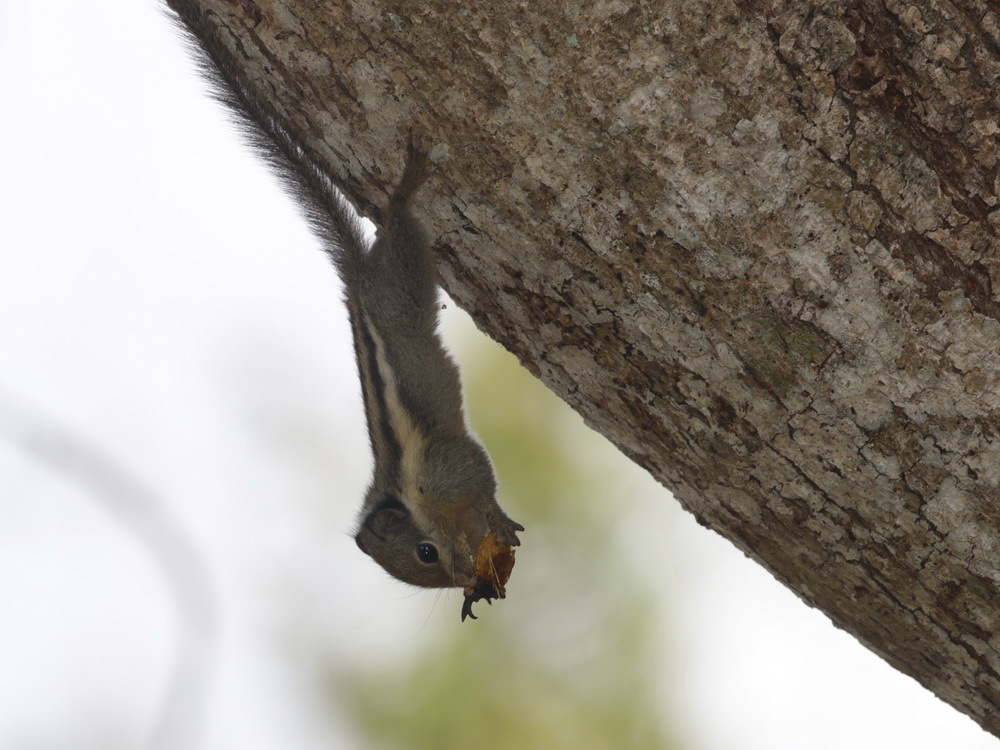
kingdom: Animalia
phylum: Chordata
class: Mammalia
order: Rodentia
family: Sciuridae
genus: Tamiops
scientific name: Tamiops mcclellandii
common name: Himalayan striped squirrel
